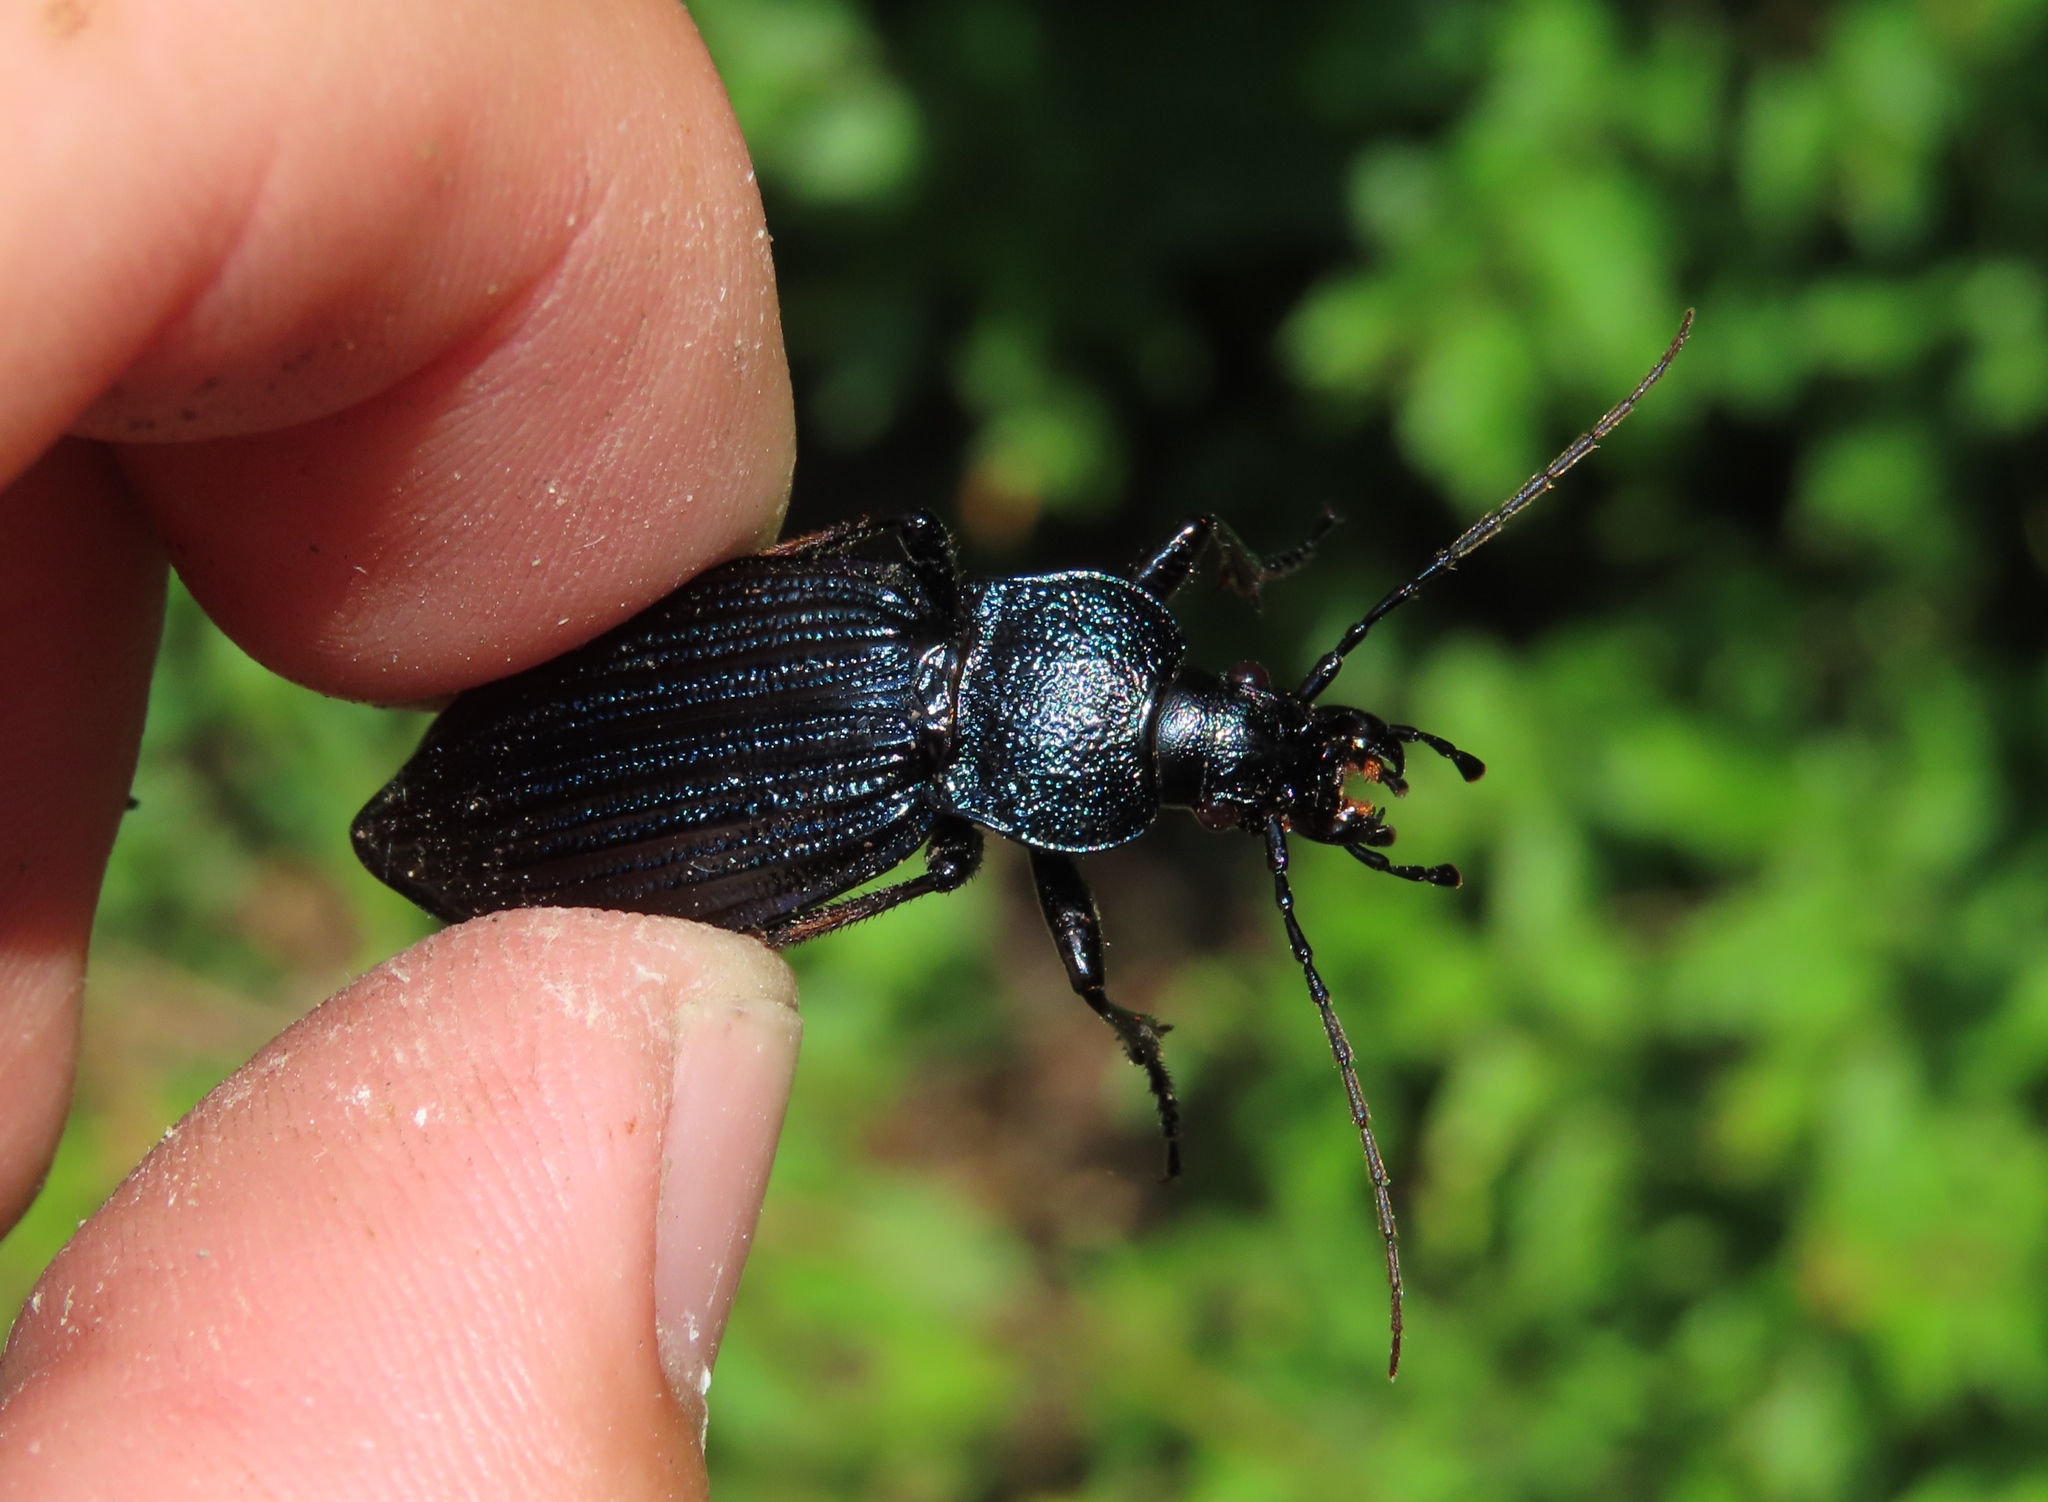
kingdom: Animalia
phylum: Arthropoda
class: Insecta
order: Coleoptera
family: Carabidae
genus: Carabus
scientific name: Carabus exaratus
